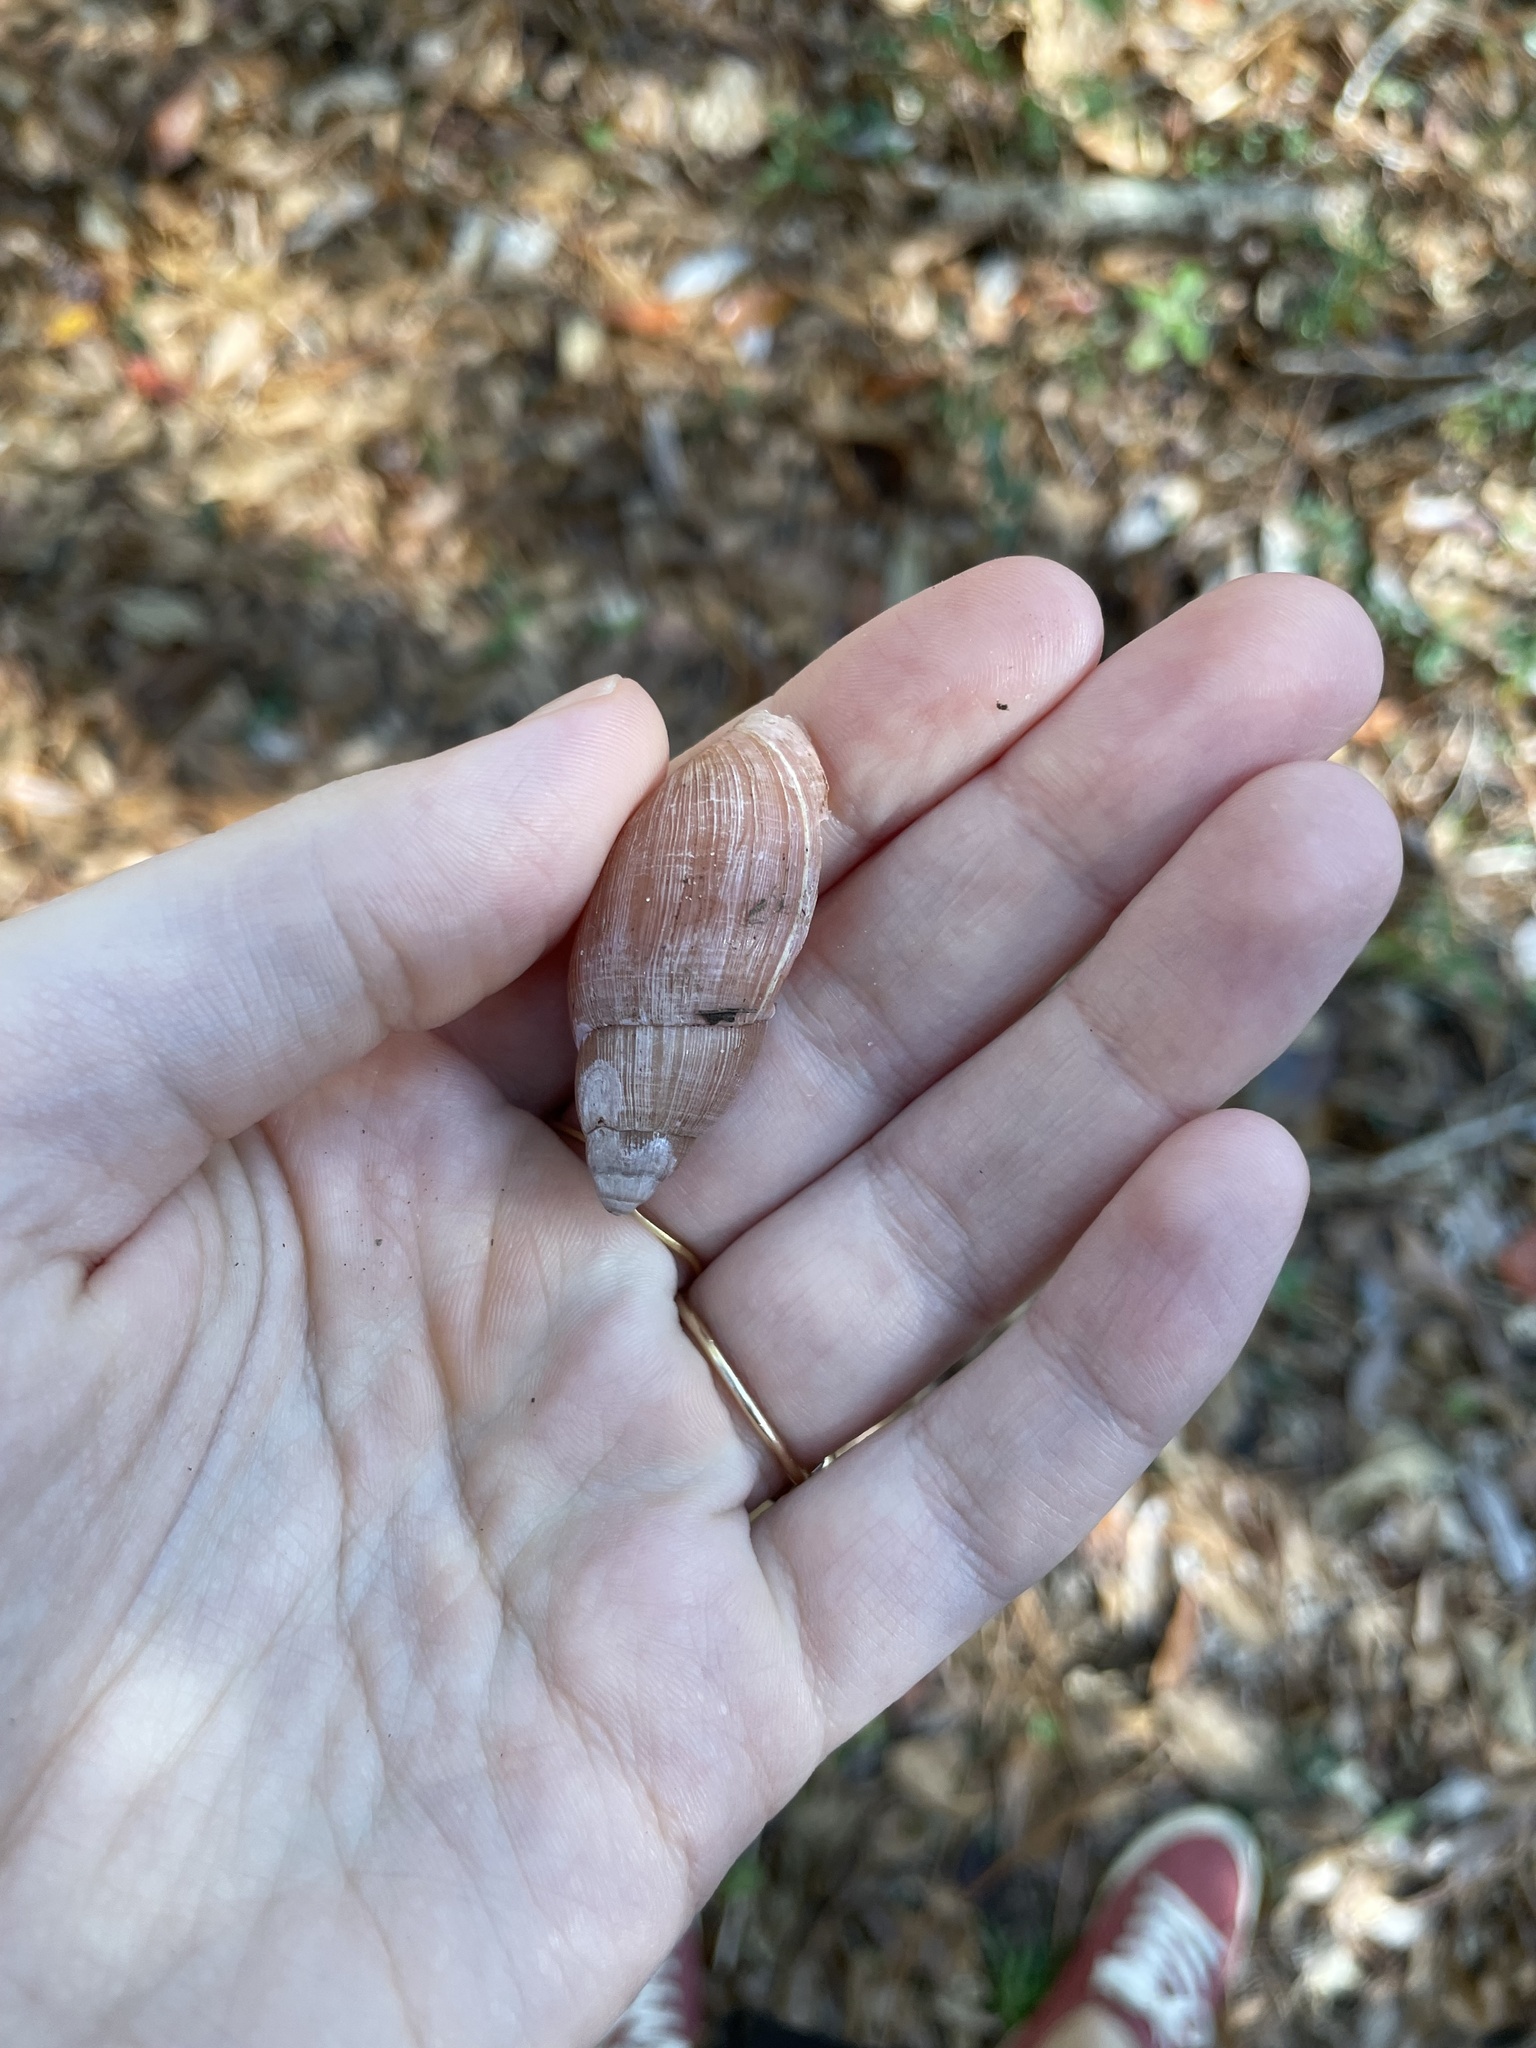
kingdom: Animalia
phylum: Mollusca
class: Gastropoda
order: Stylommatophora
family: Spiraxidae
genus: Euglandina
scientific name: Euglandina rosea
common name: Rosy wolfsnail
